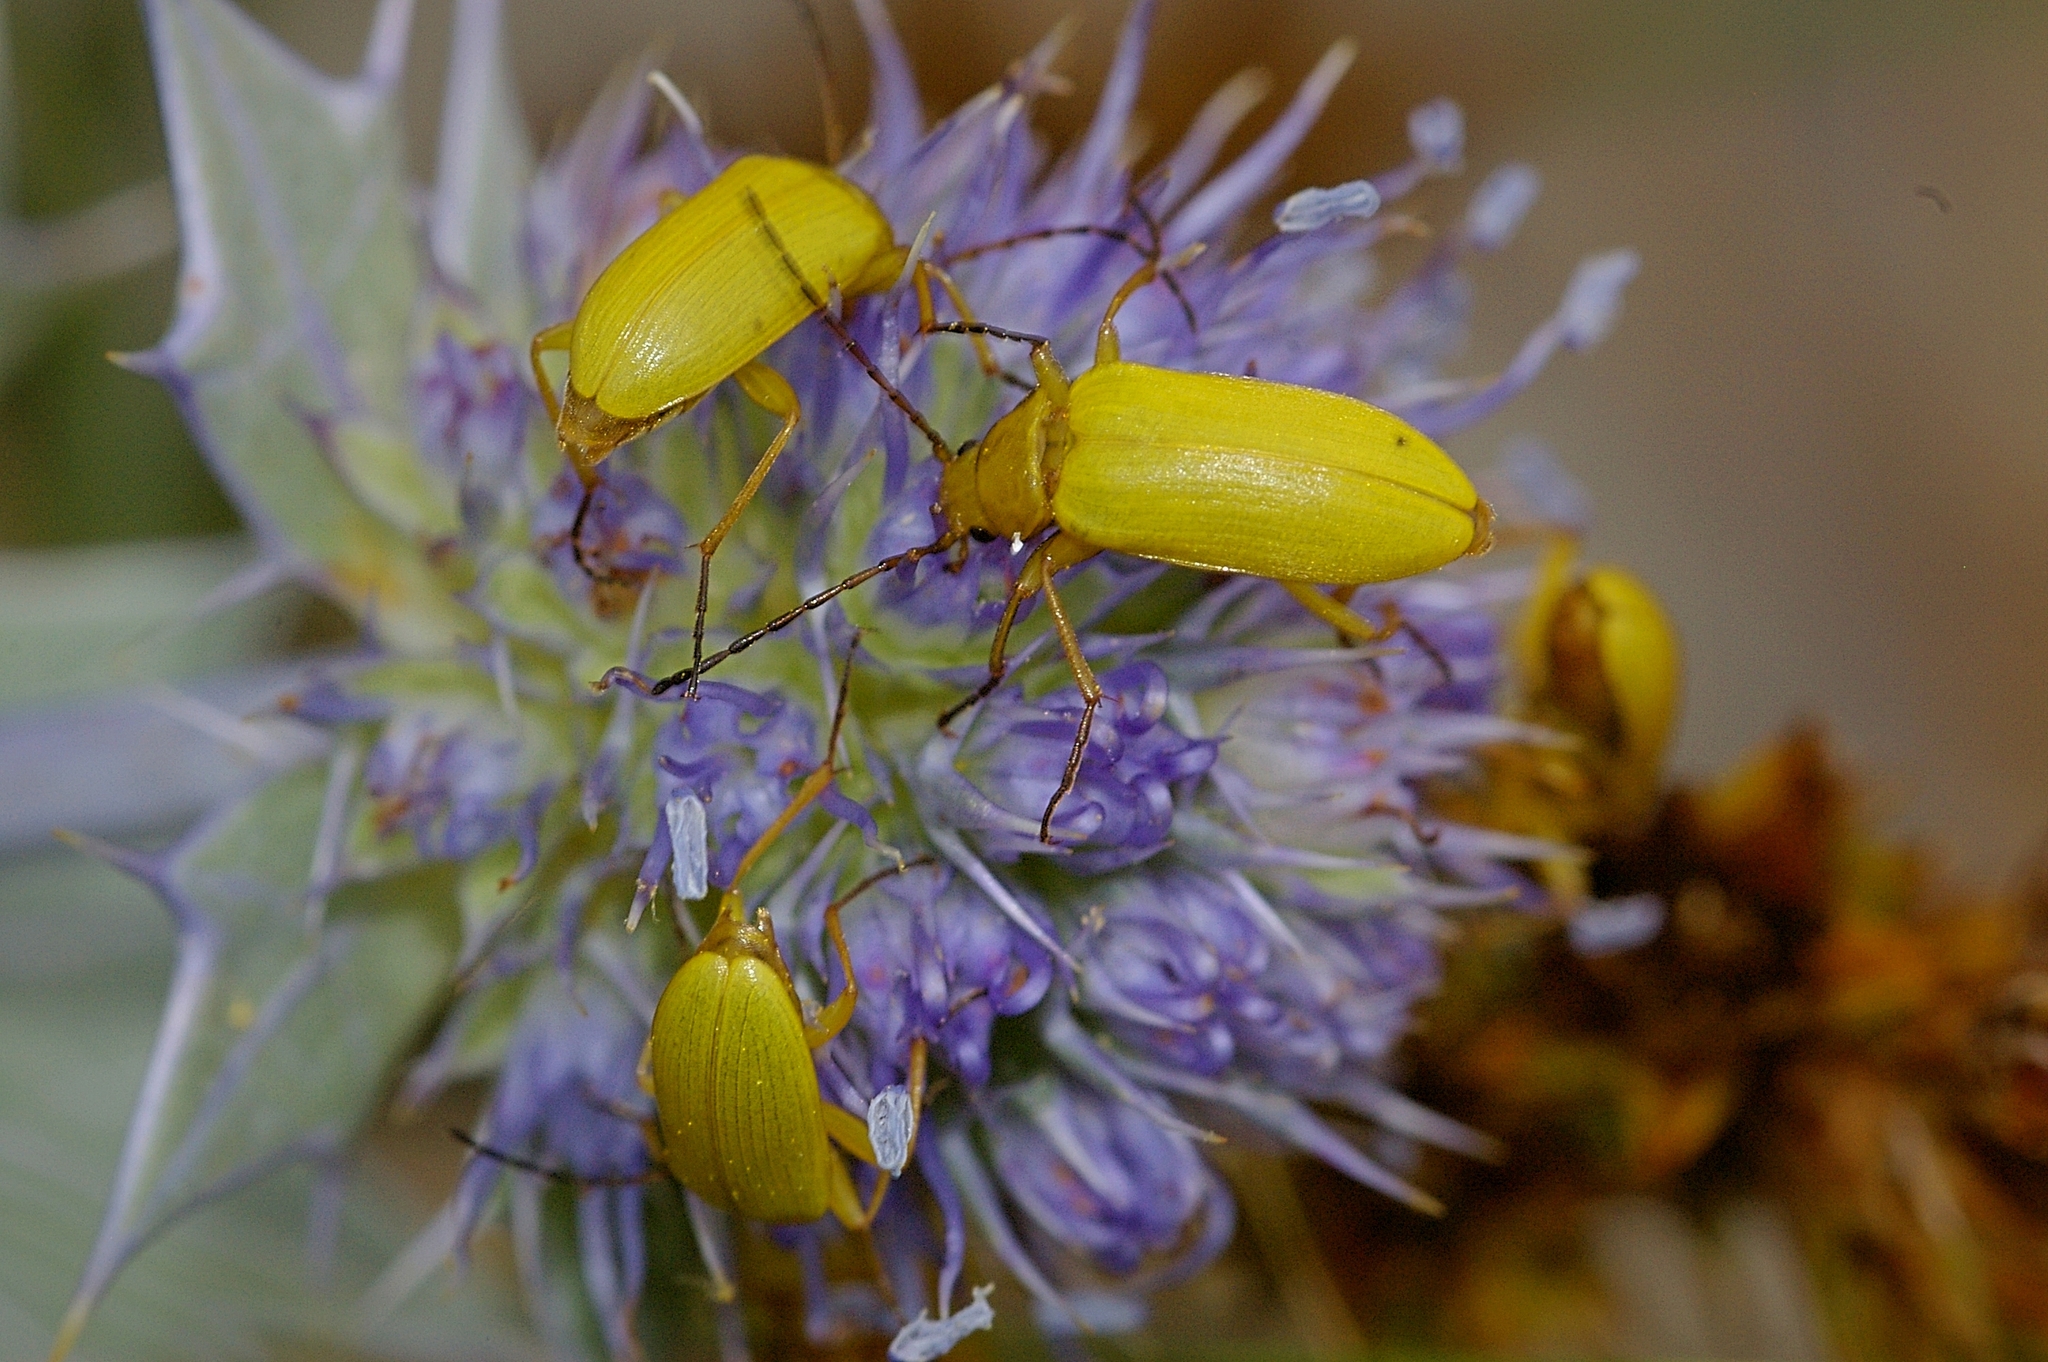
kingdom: Animalia
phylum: Arthropoda
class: Insecta
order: Coleoptera
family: Tenebrionidae
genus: Cteniopus
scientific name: Cteniopus sulphureus
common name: Sulphur beetle
